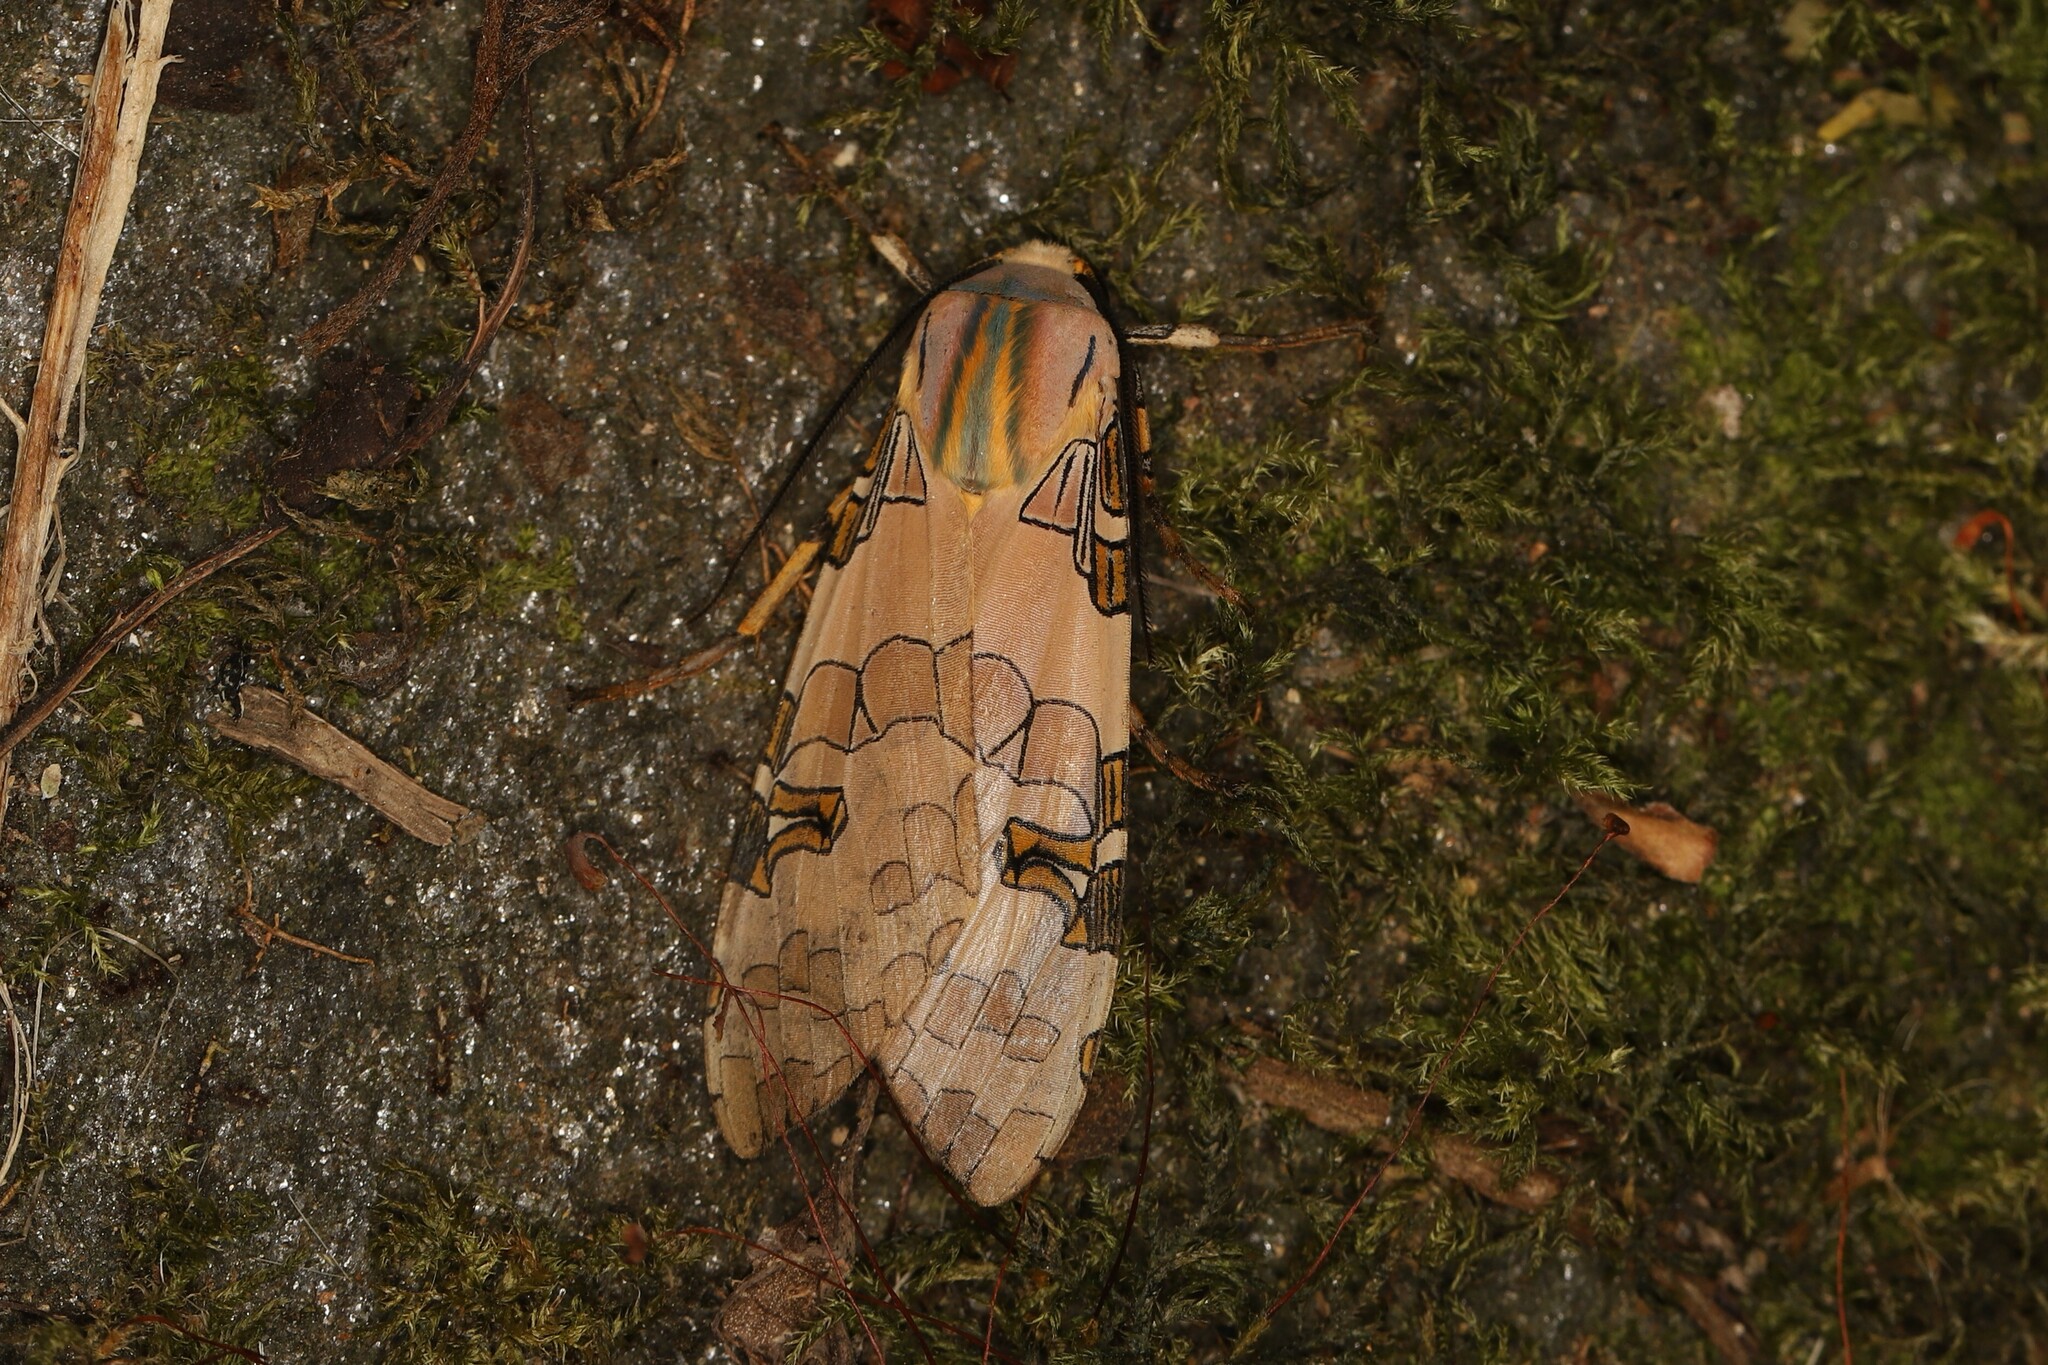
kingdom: Animalia
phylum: Arthropoda
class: Insecta
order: Lepidoptera
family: Erebidae
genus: Halysidota
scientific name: Halysidota schausi
